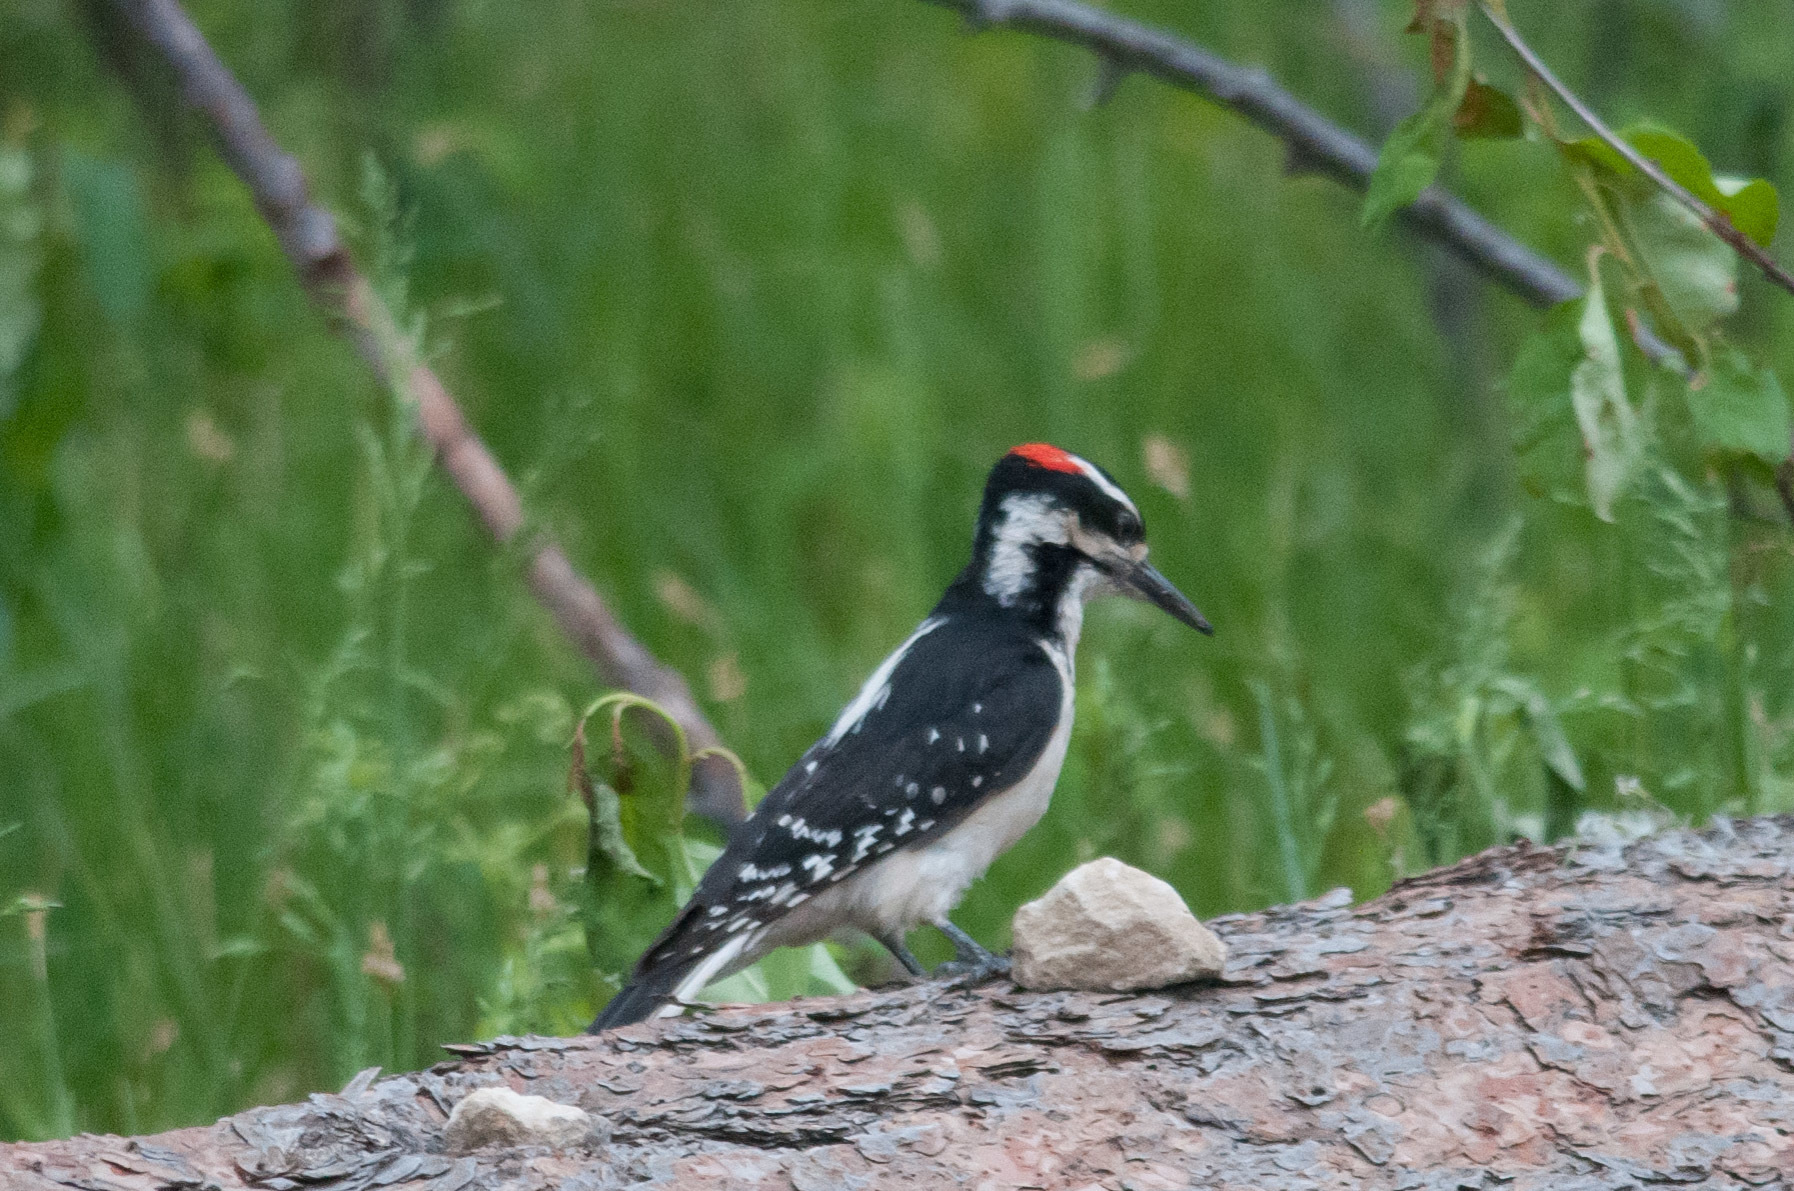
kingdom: Animalia
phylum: Chordata
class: Aves
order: Piciformes
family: Picidae
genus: Leuconotopicus
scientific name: Leuconotopicus villosus
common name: Hairy woodpecker
